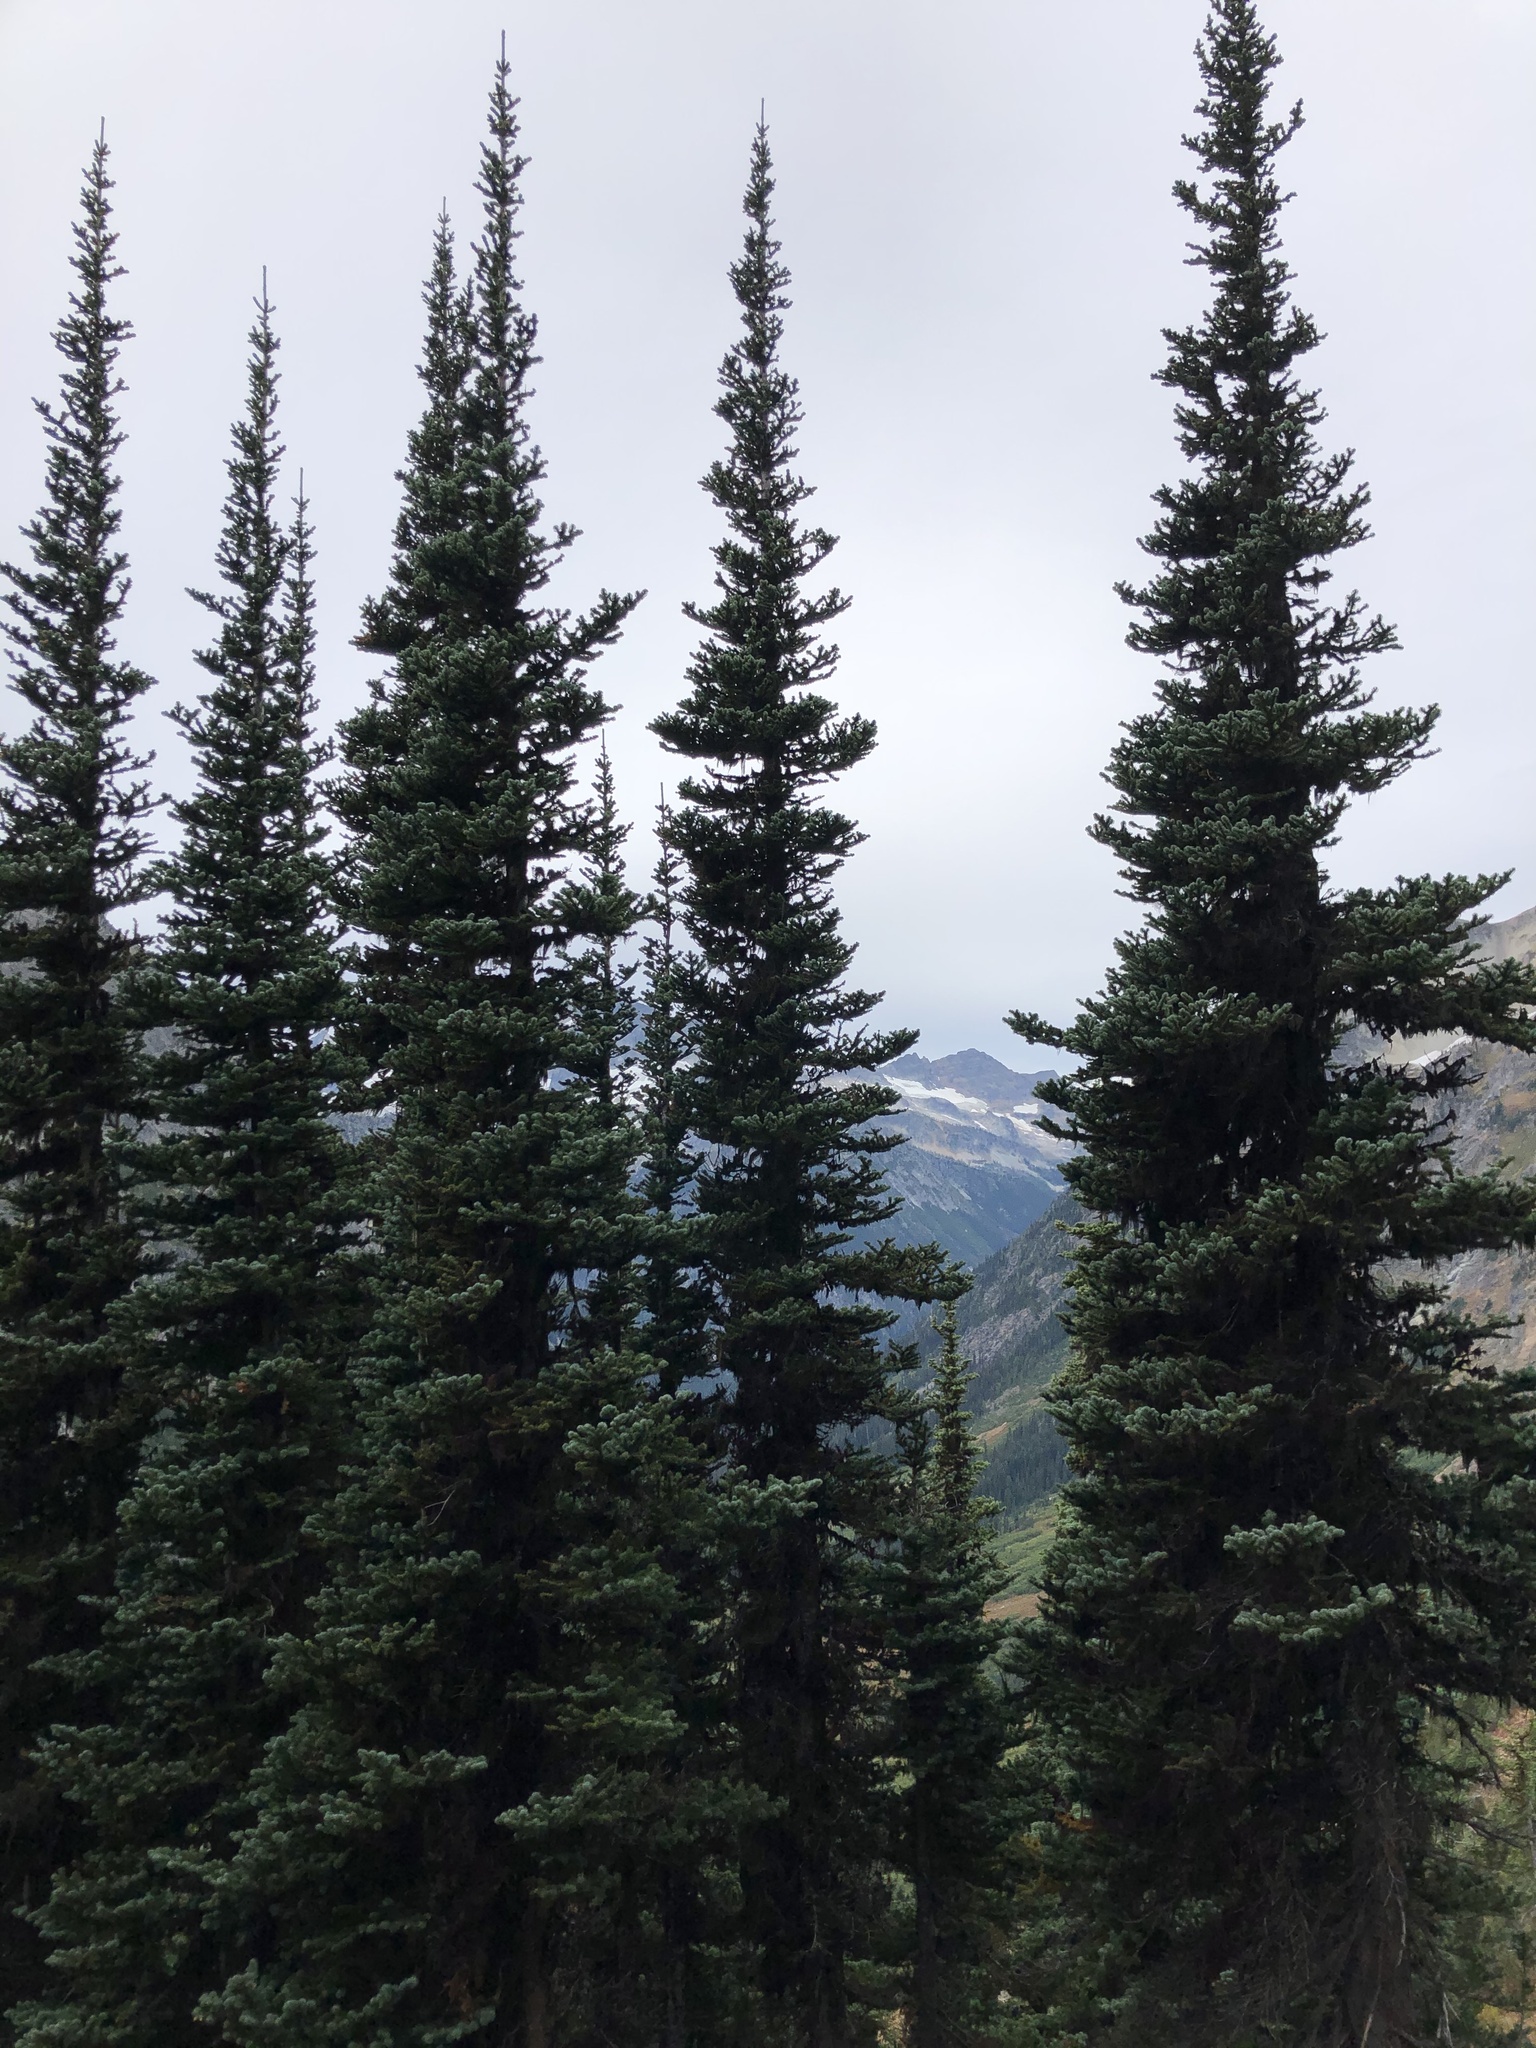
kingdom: Plantae
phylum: Tracheophyta
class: Pinopsida
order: Pinales
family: Pinaceae
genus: Abies
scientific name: Abies lasiocarpa
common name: Subalpine fir
